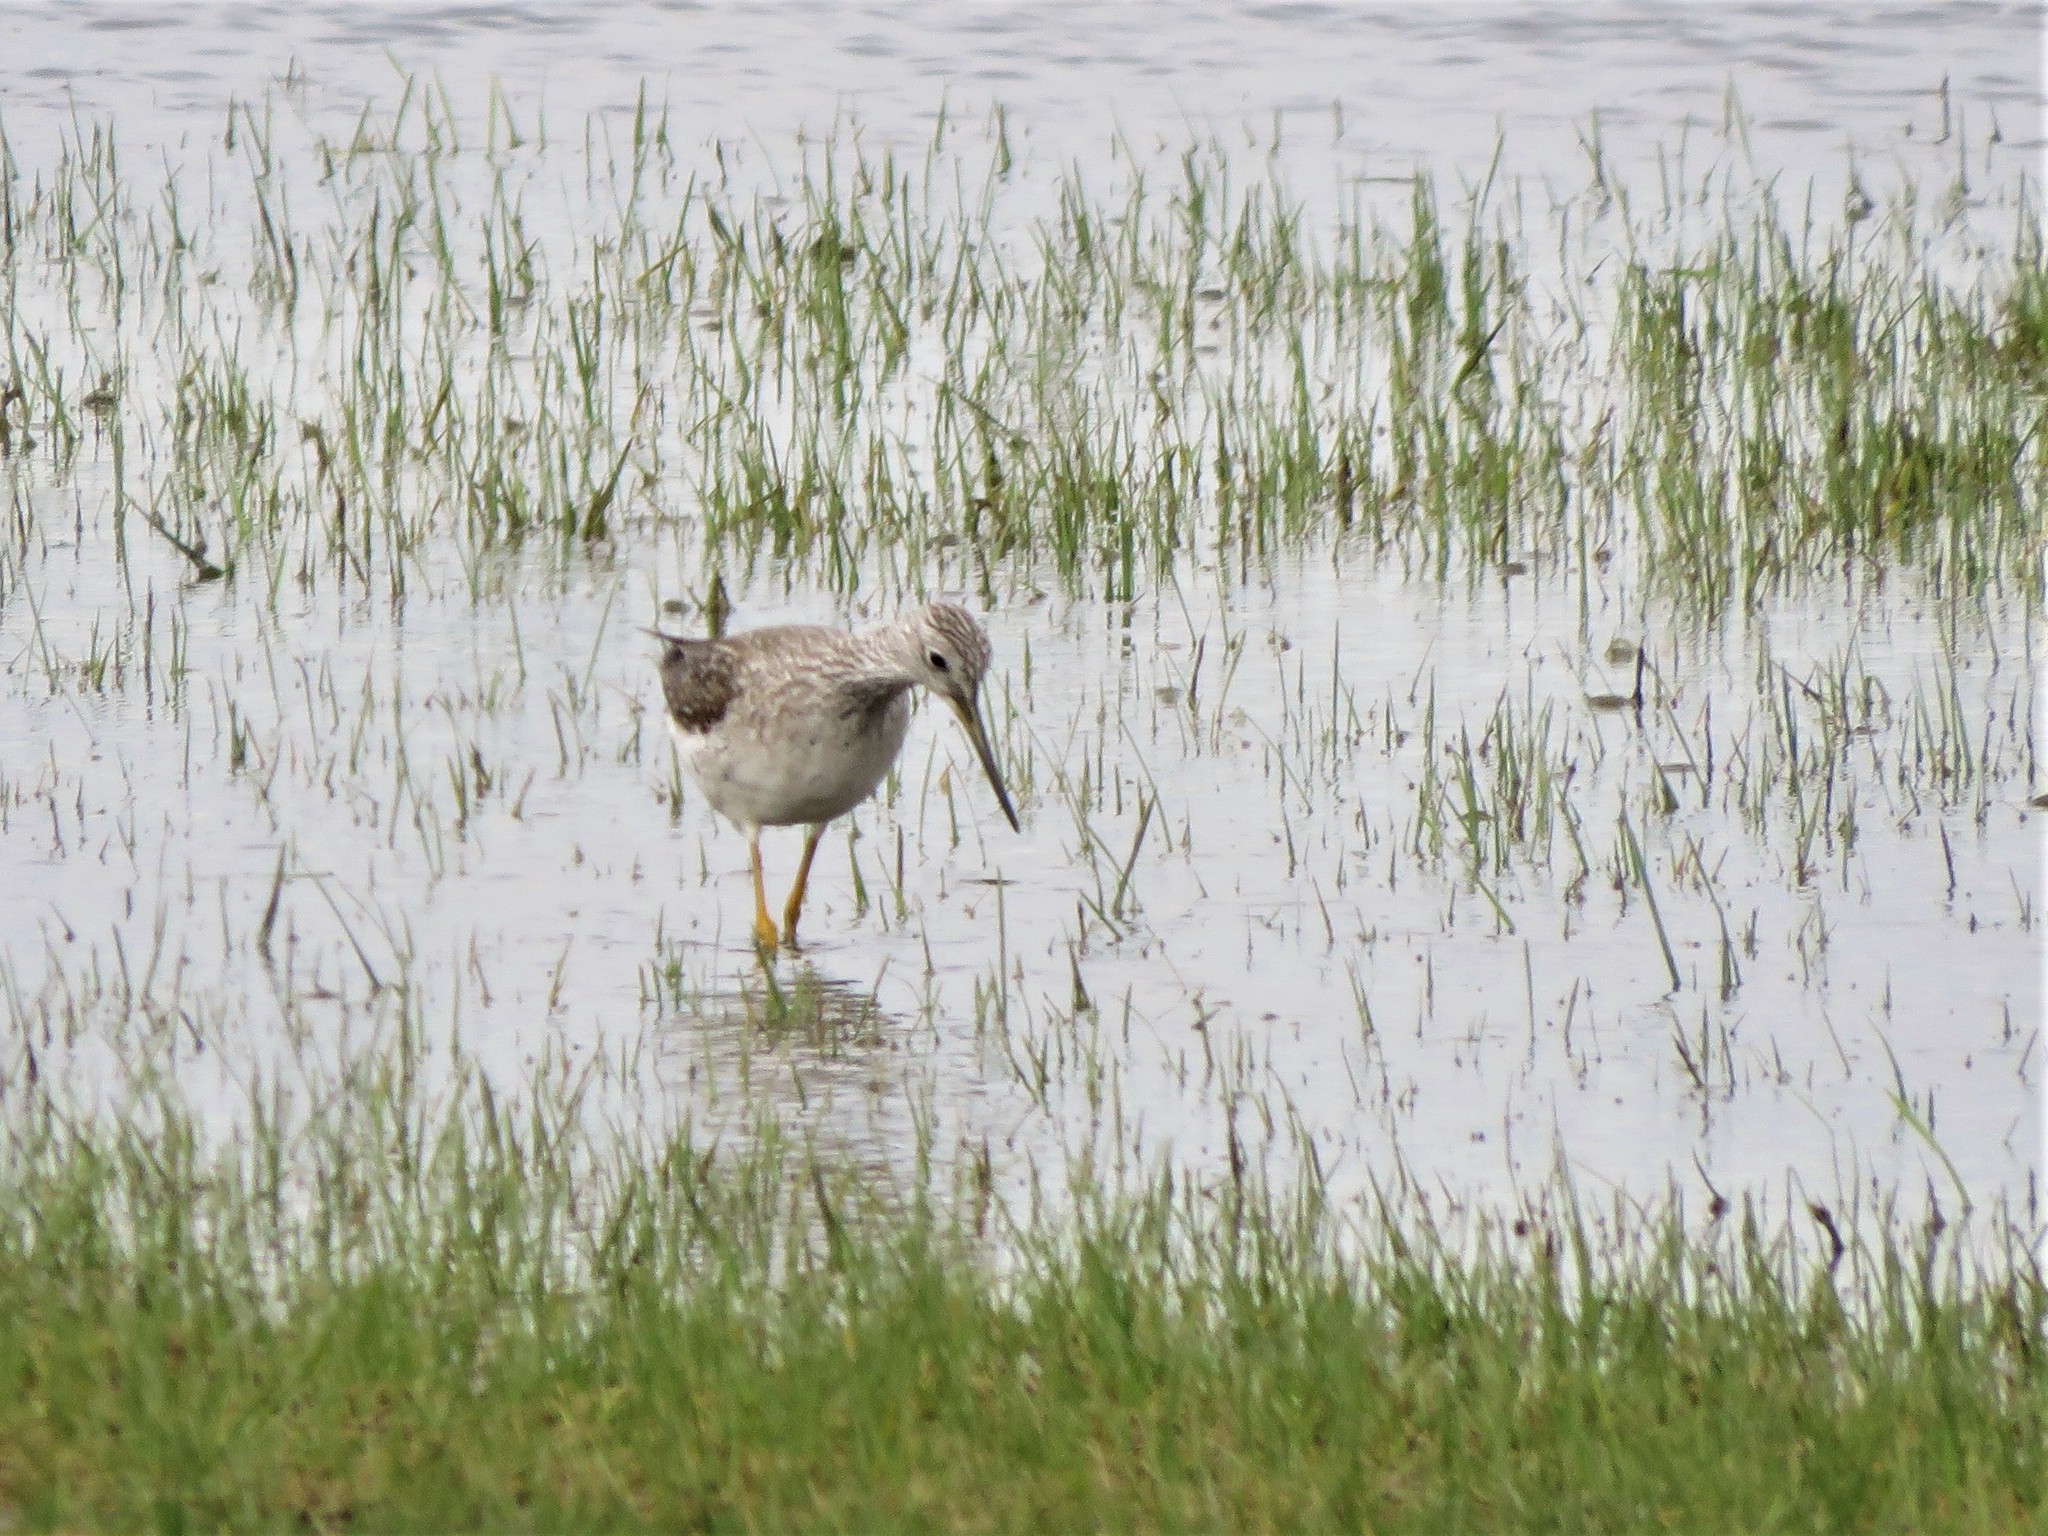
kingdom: Animalia
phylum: Chordata
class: Aves
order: Charadriiformes
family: Scolopacidae
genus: Tringa
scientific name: Tringa melanoleuca
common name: Greater yellowlegs
